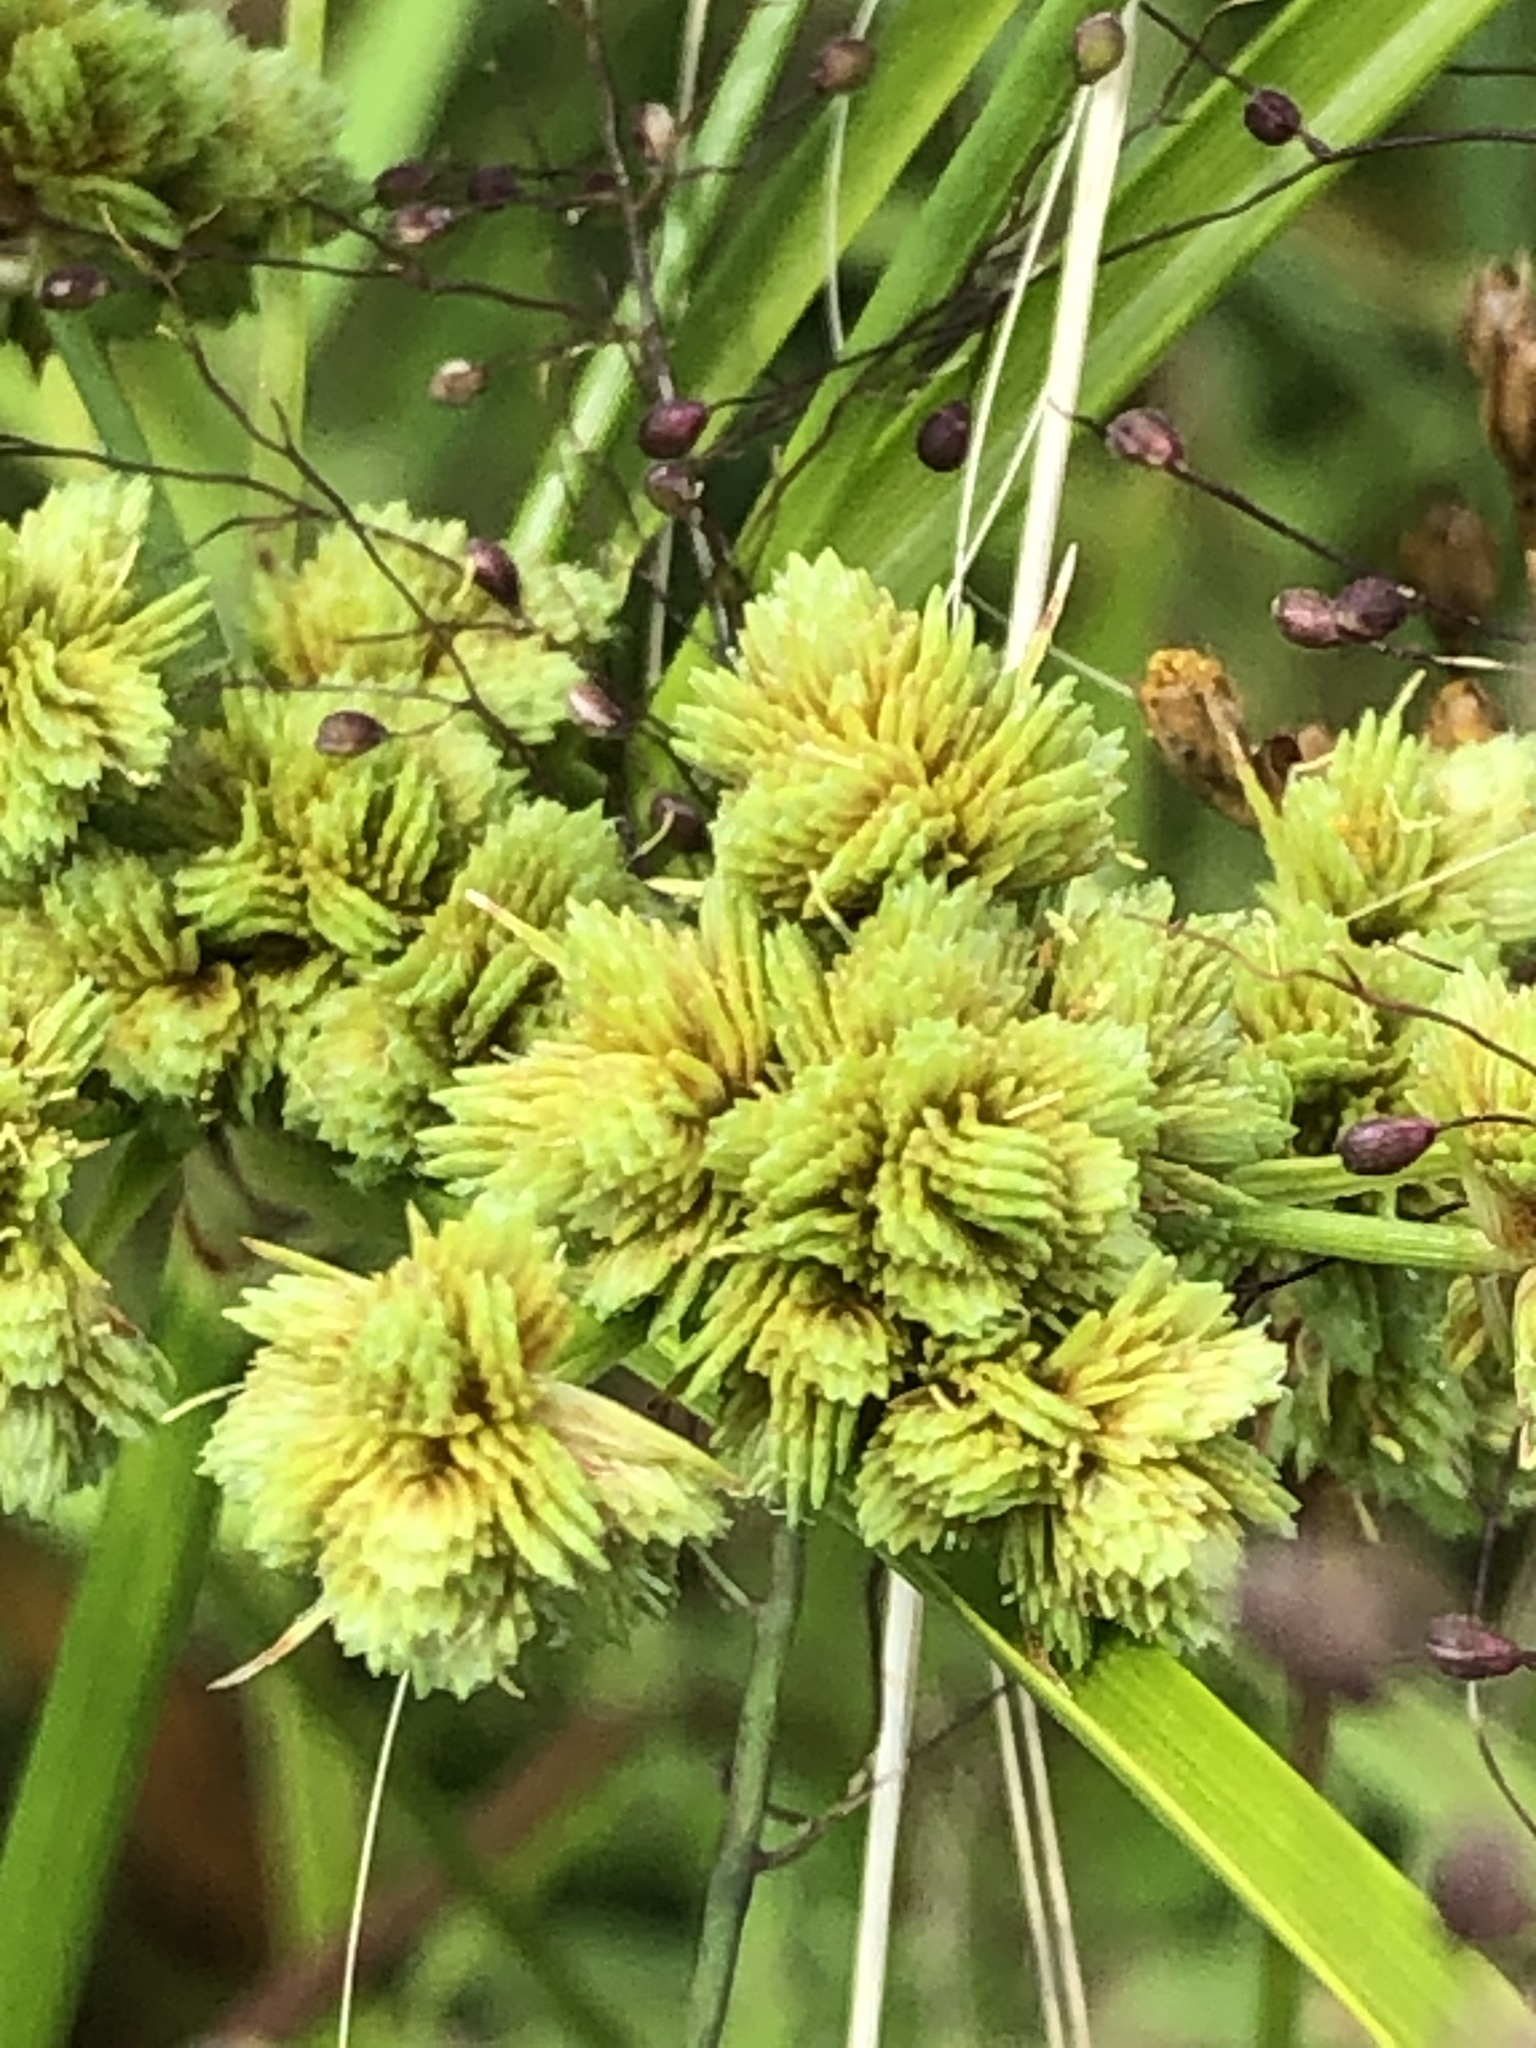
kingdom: Plantae
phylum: Tracheophyta
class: Liliopsida
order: Poales
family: Cyperaceae
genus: Cyperus
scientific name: Cyperus pseudovegetus
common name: Marsh flat sedge
